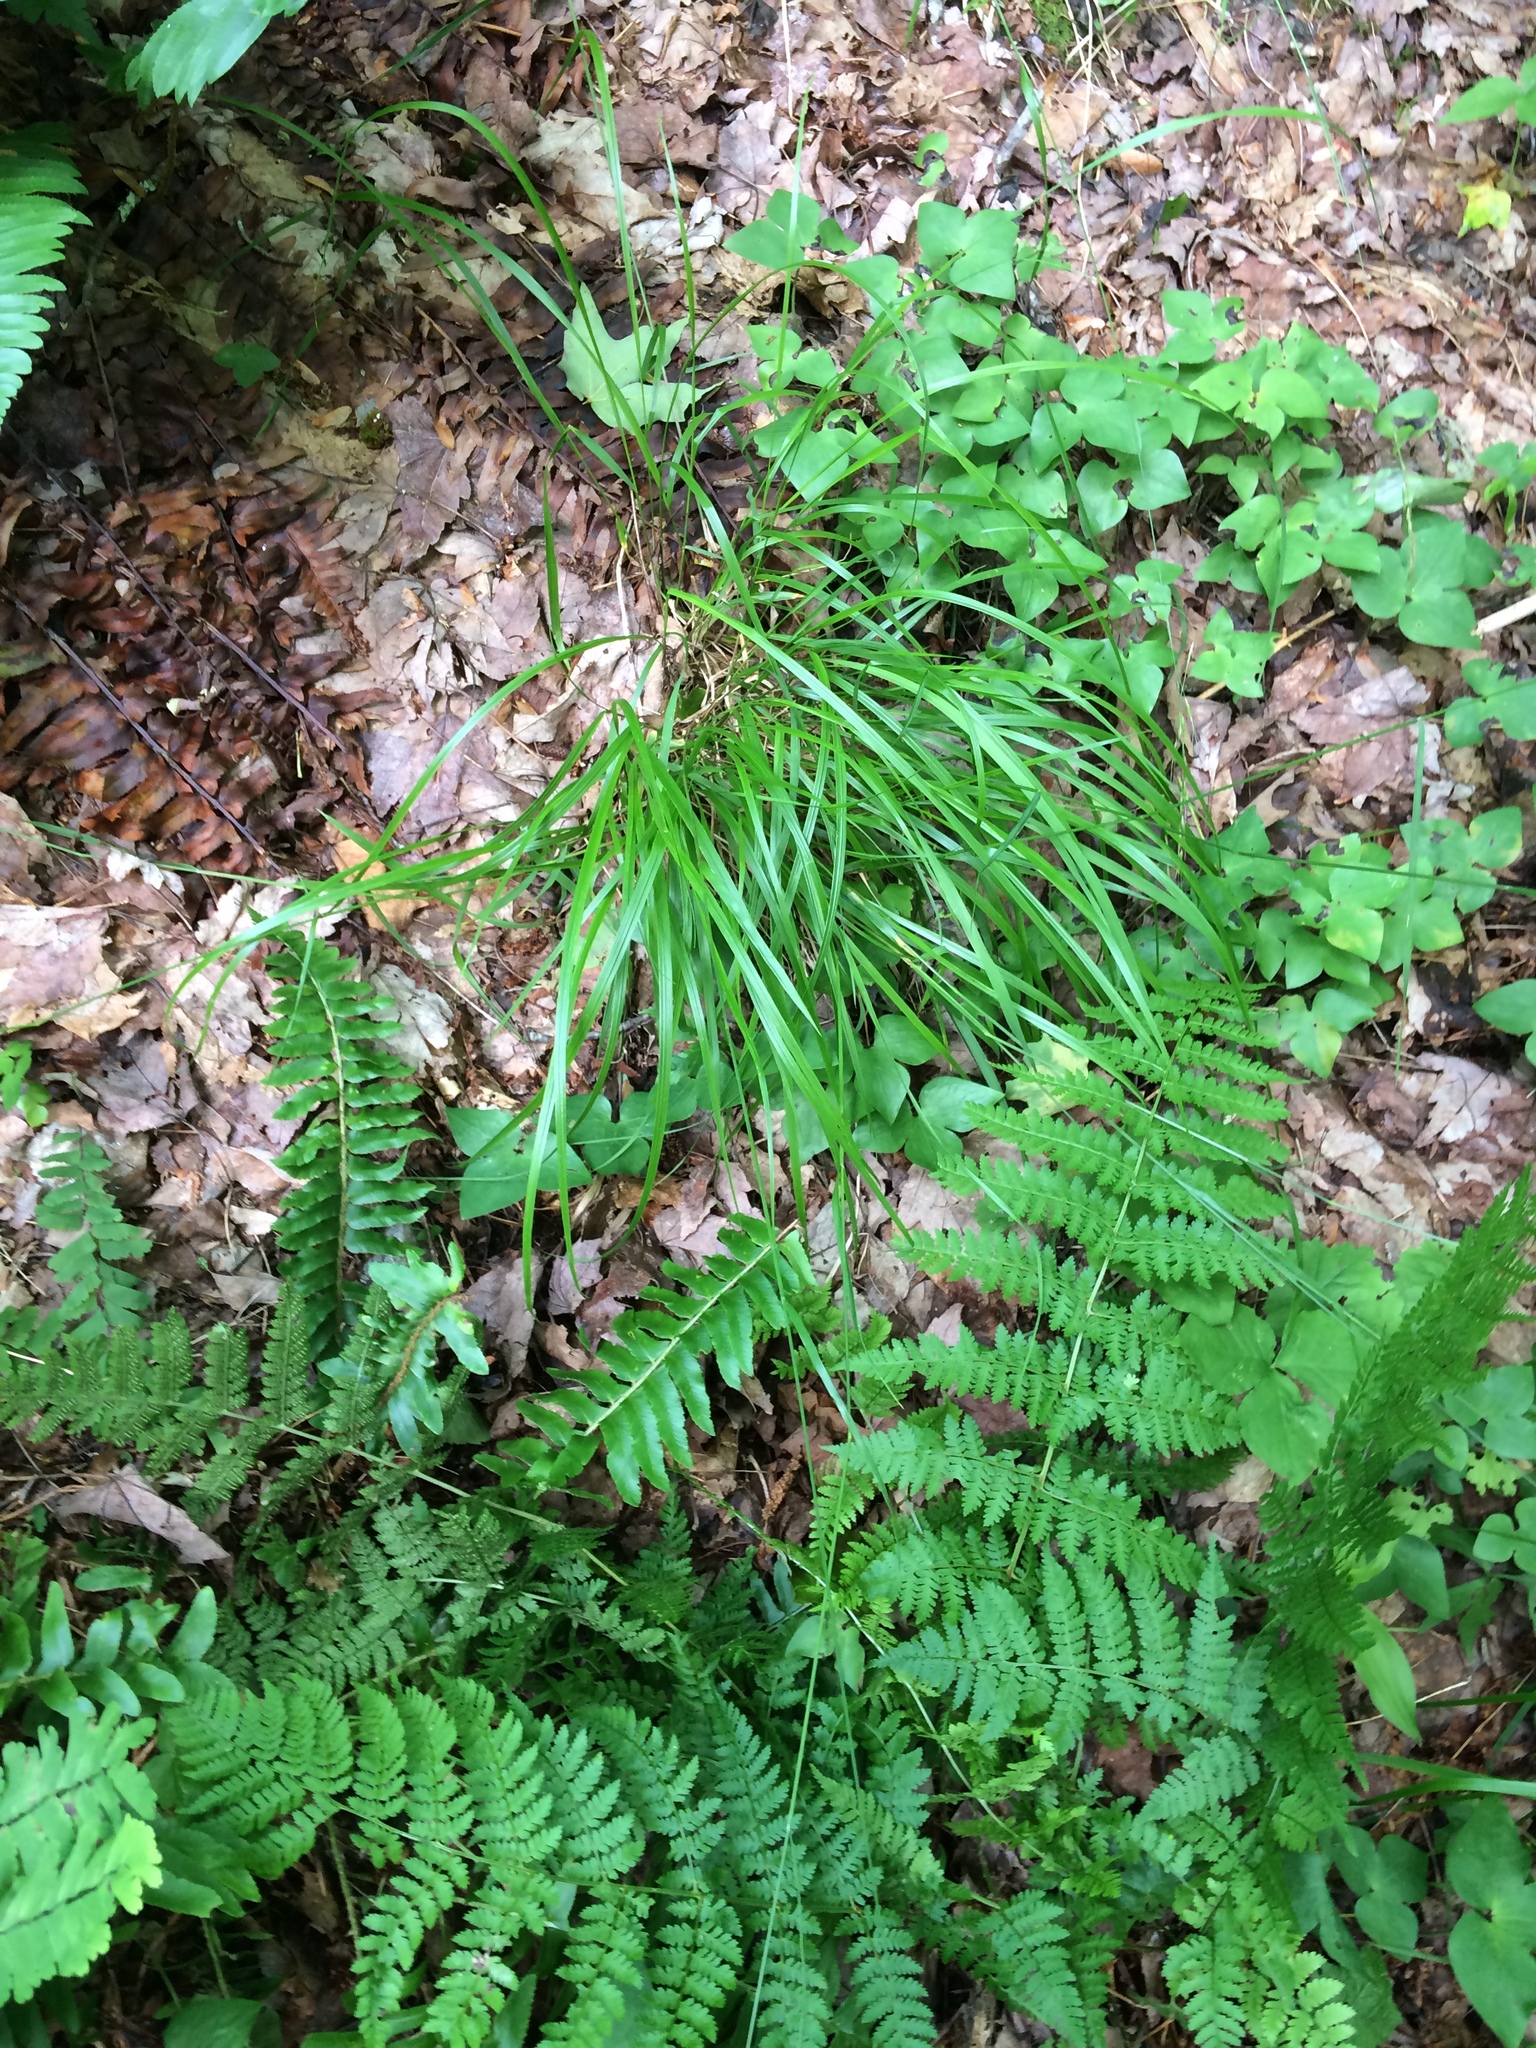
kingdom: Plantae
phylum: Tracheophyta
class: Liliopsida
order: Poales
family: Poaceae
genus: Schizachne
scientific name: Schizachne purpurascens
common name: False melic
